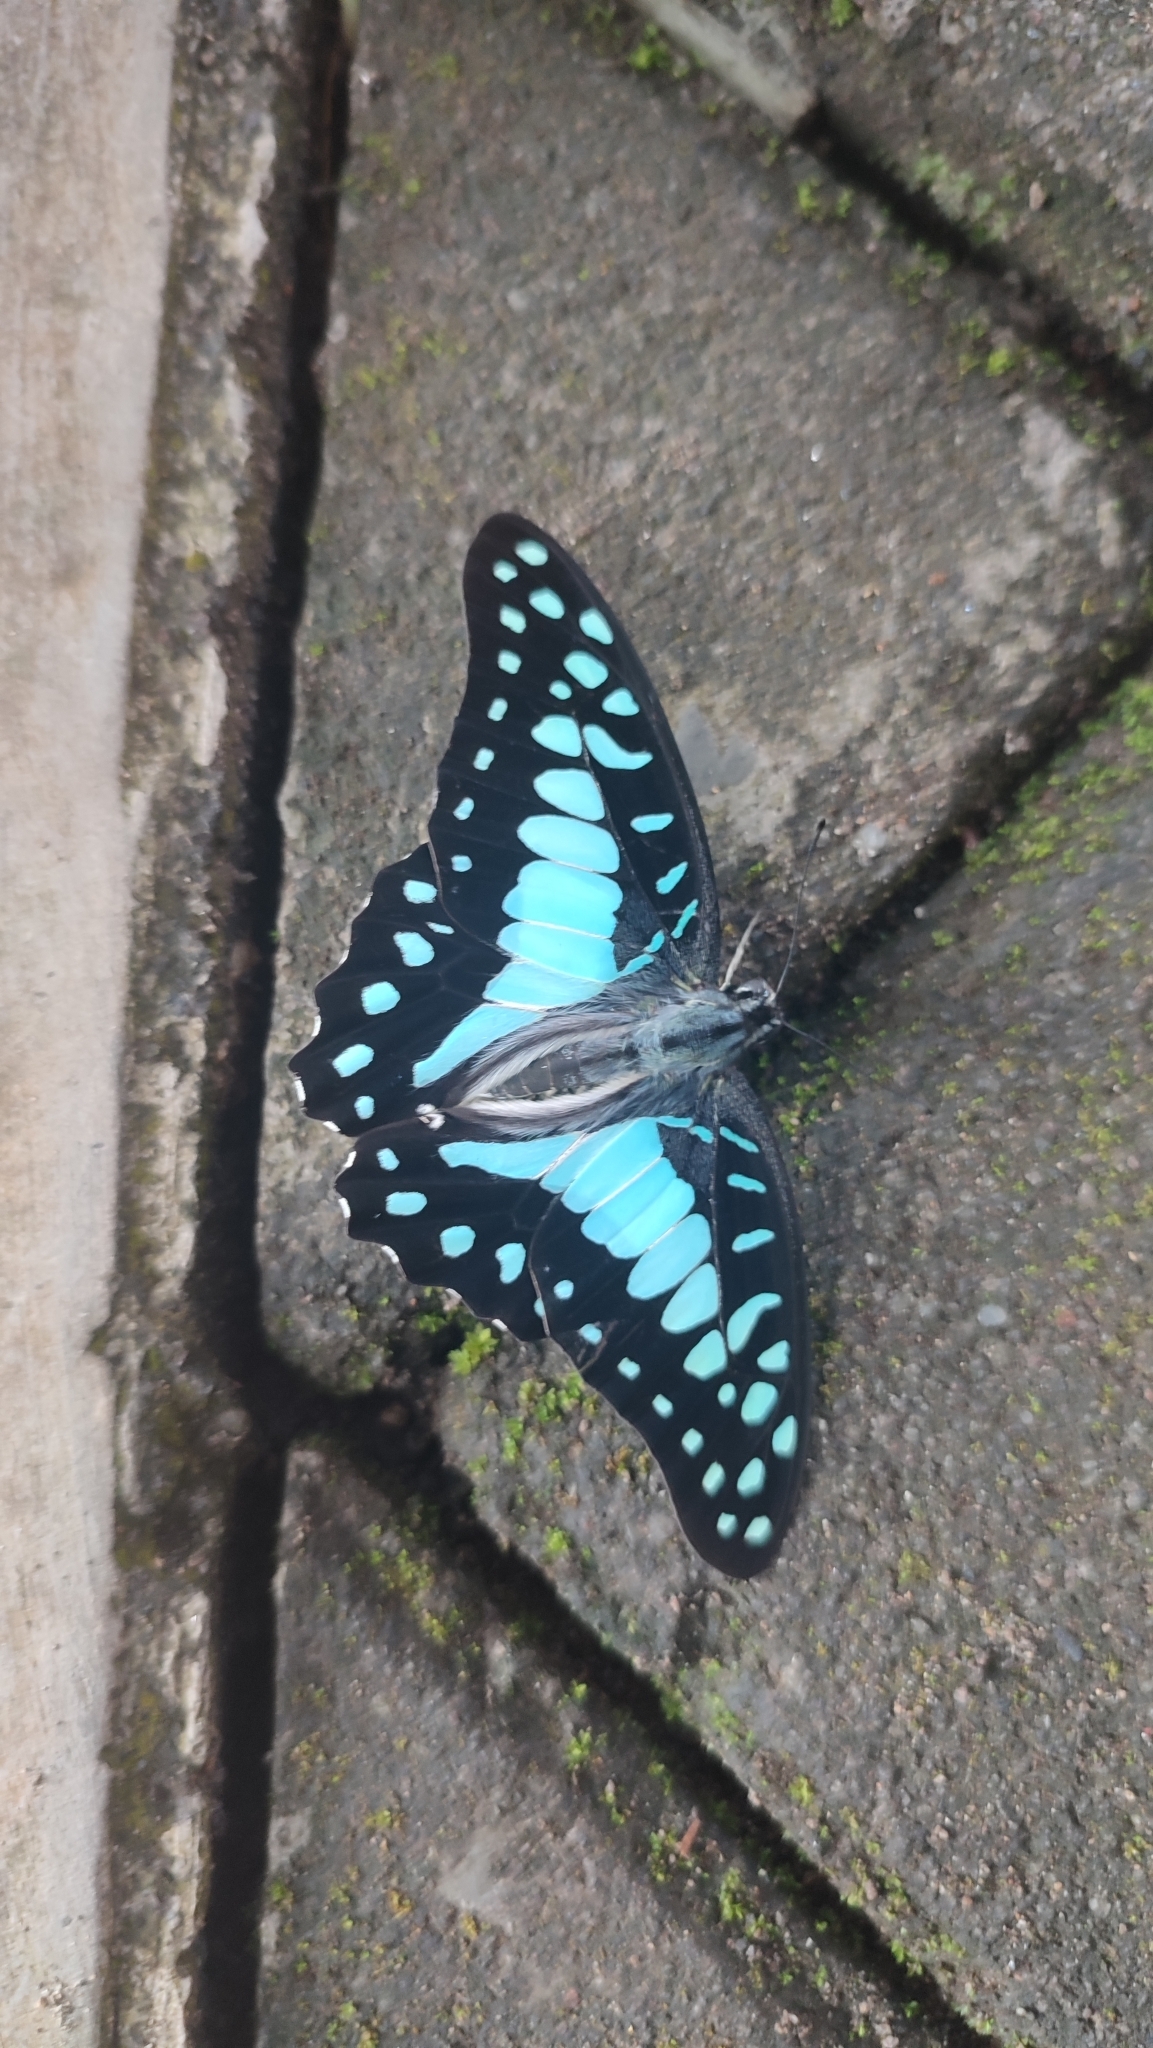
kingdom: Animalia
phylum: Arthropoda
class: Insecta
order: Lepidoptera
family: Papilionidae
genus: Graphium
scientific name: Graphium doson
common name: Common jay
